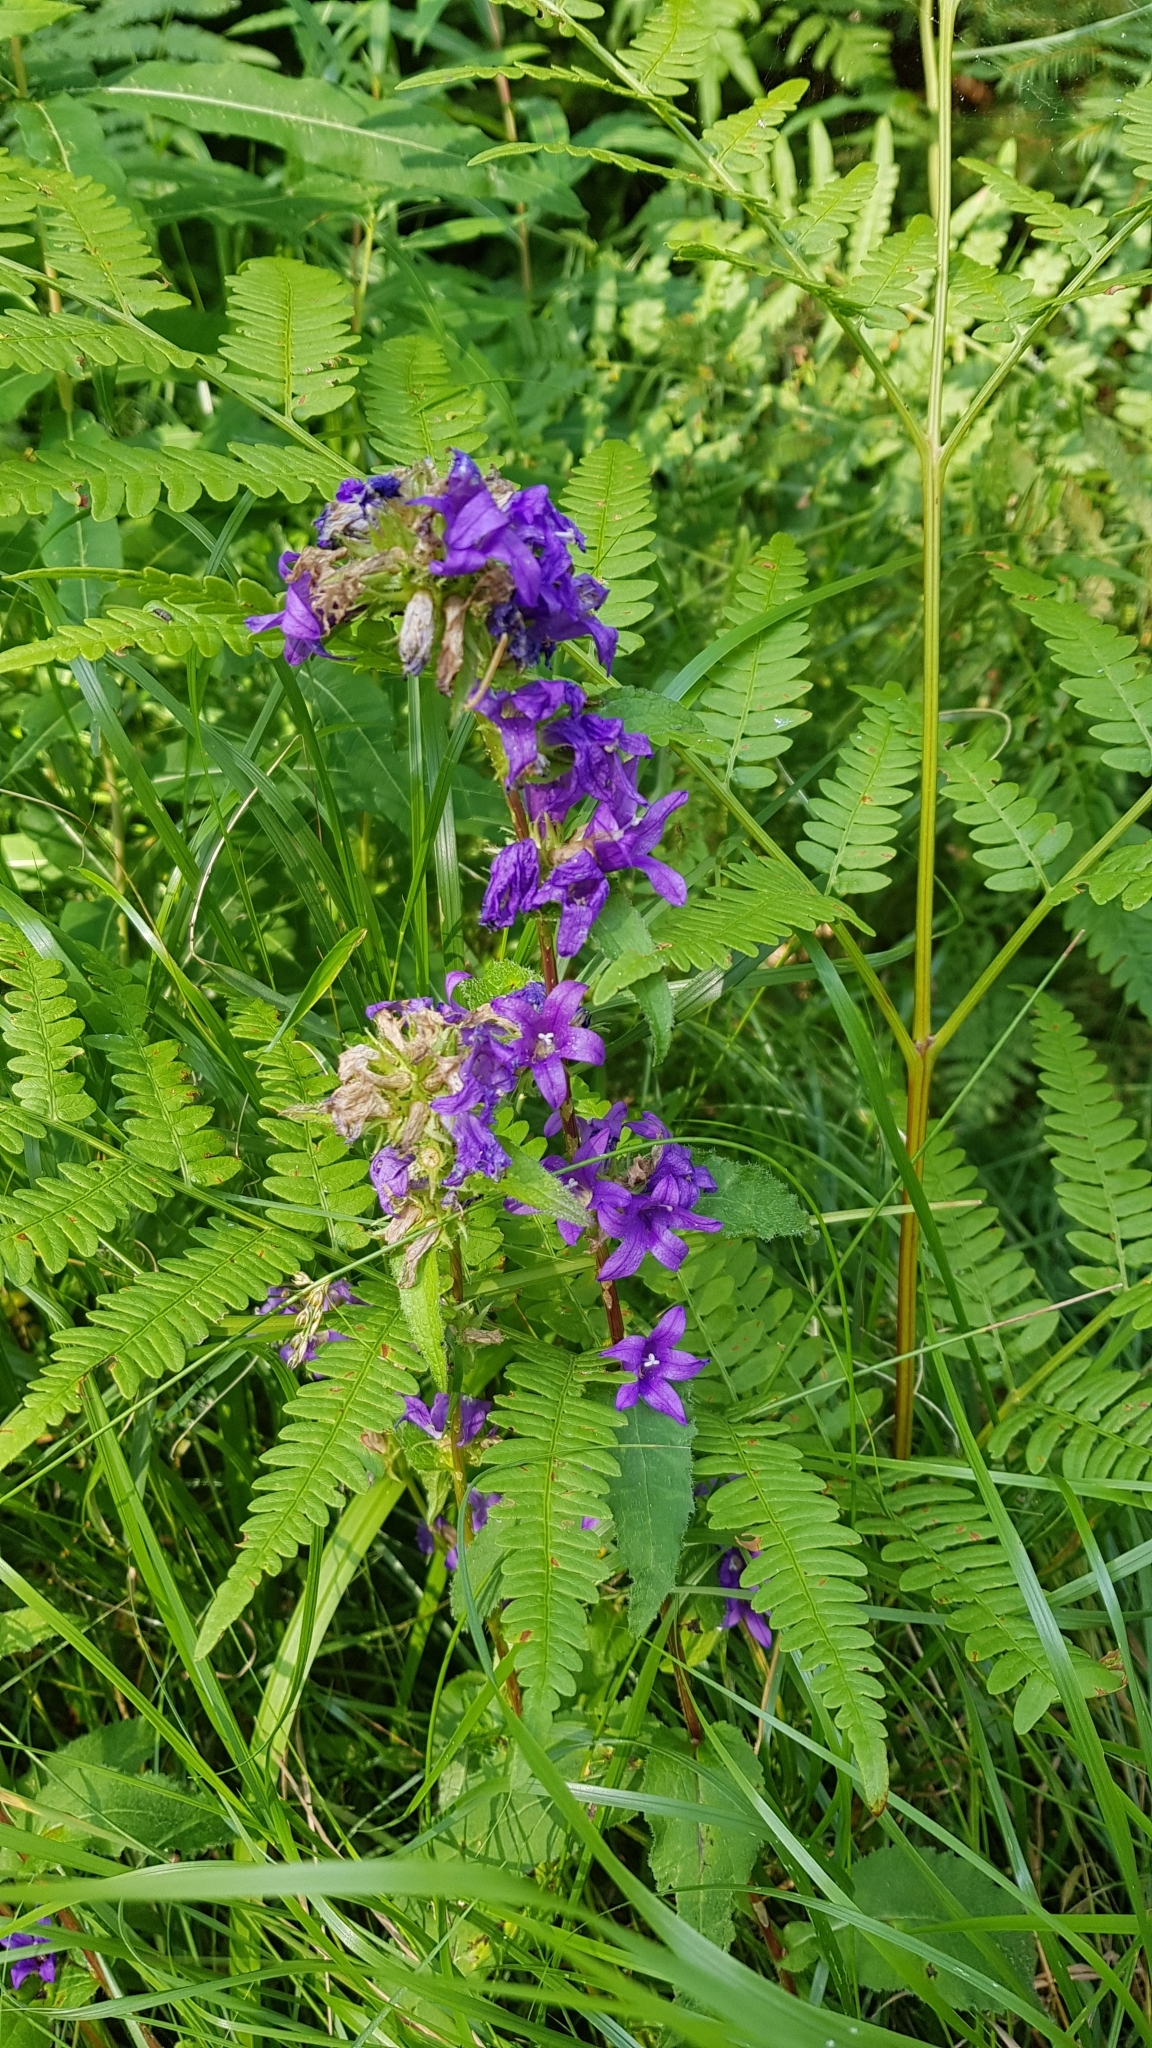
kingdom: Plantae
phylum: Tracheophyta
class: Magnoliopsida
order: Asterales
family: Campanulaceae
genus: Campanula
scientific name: Campanula glomerata
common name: Clustered bellflower
